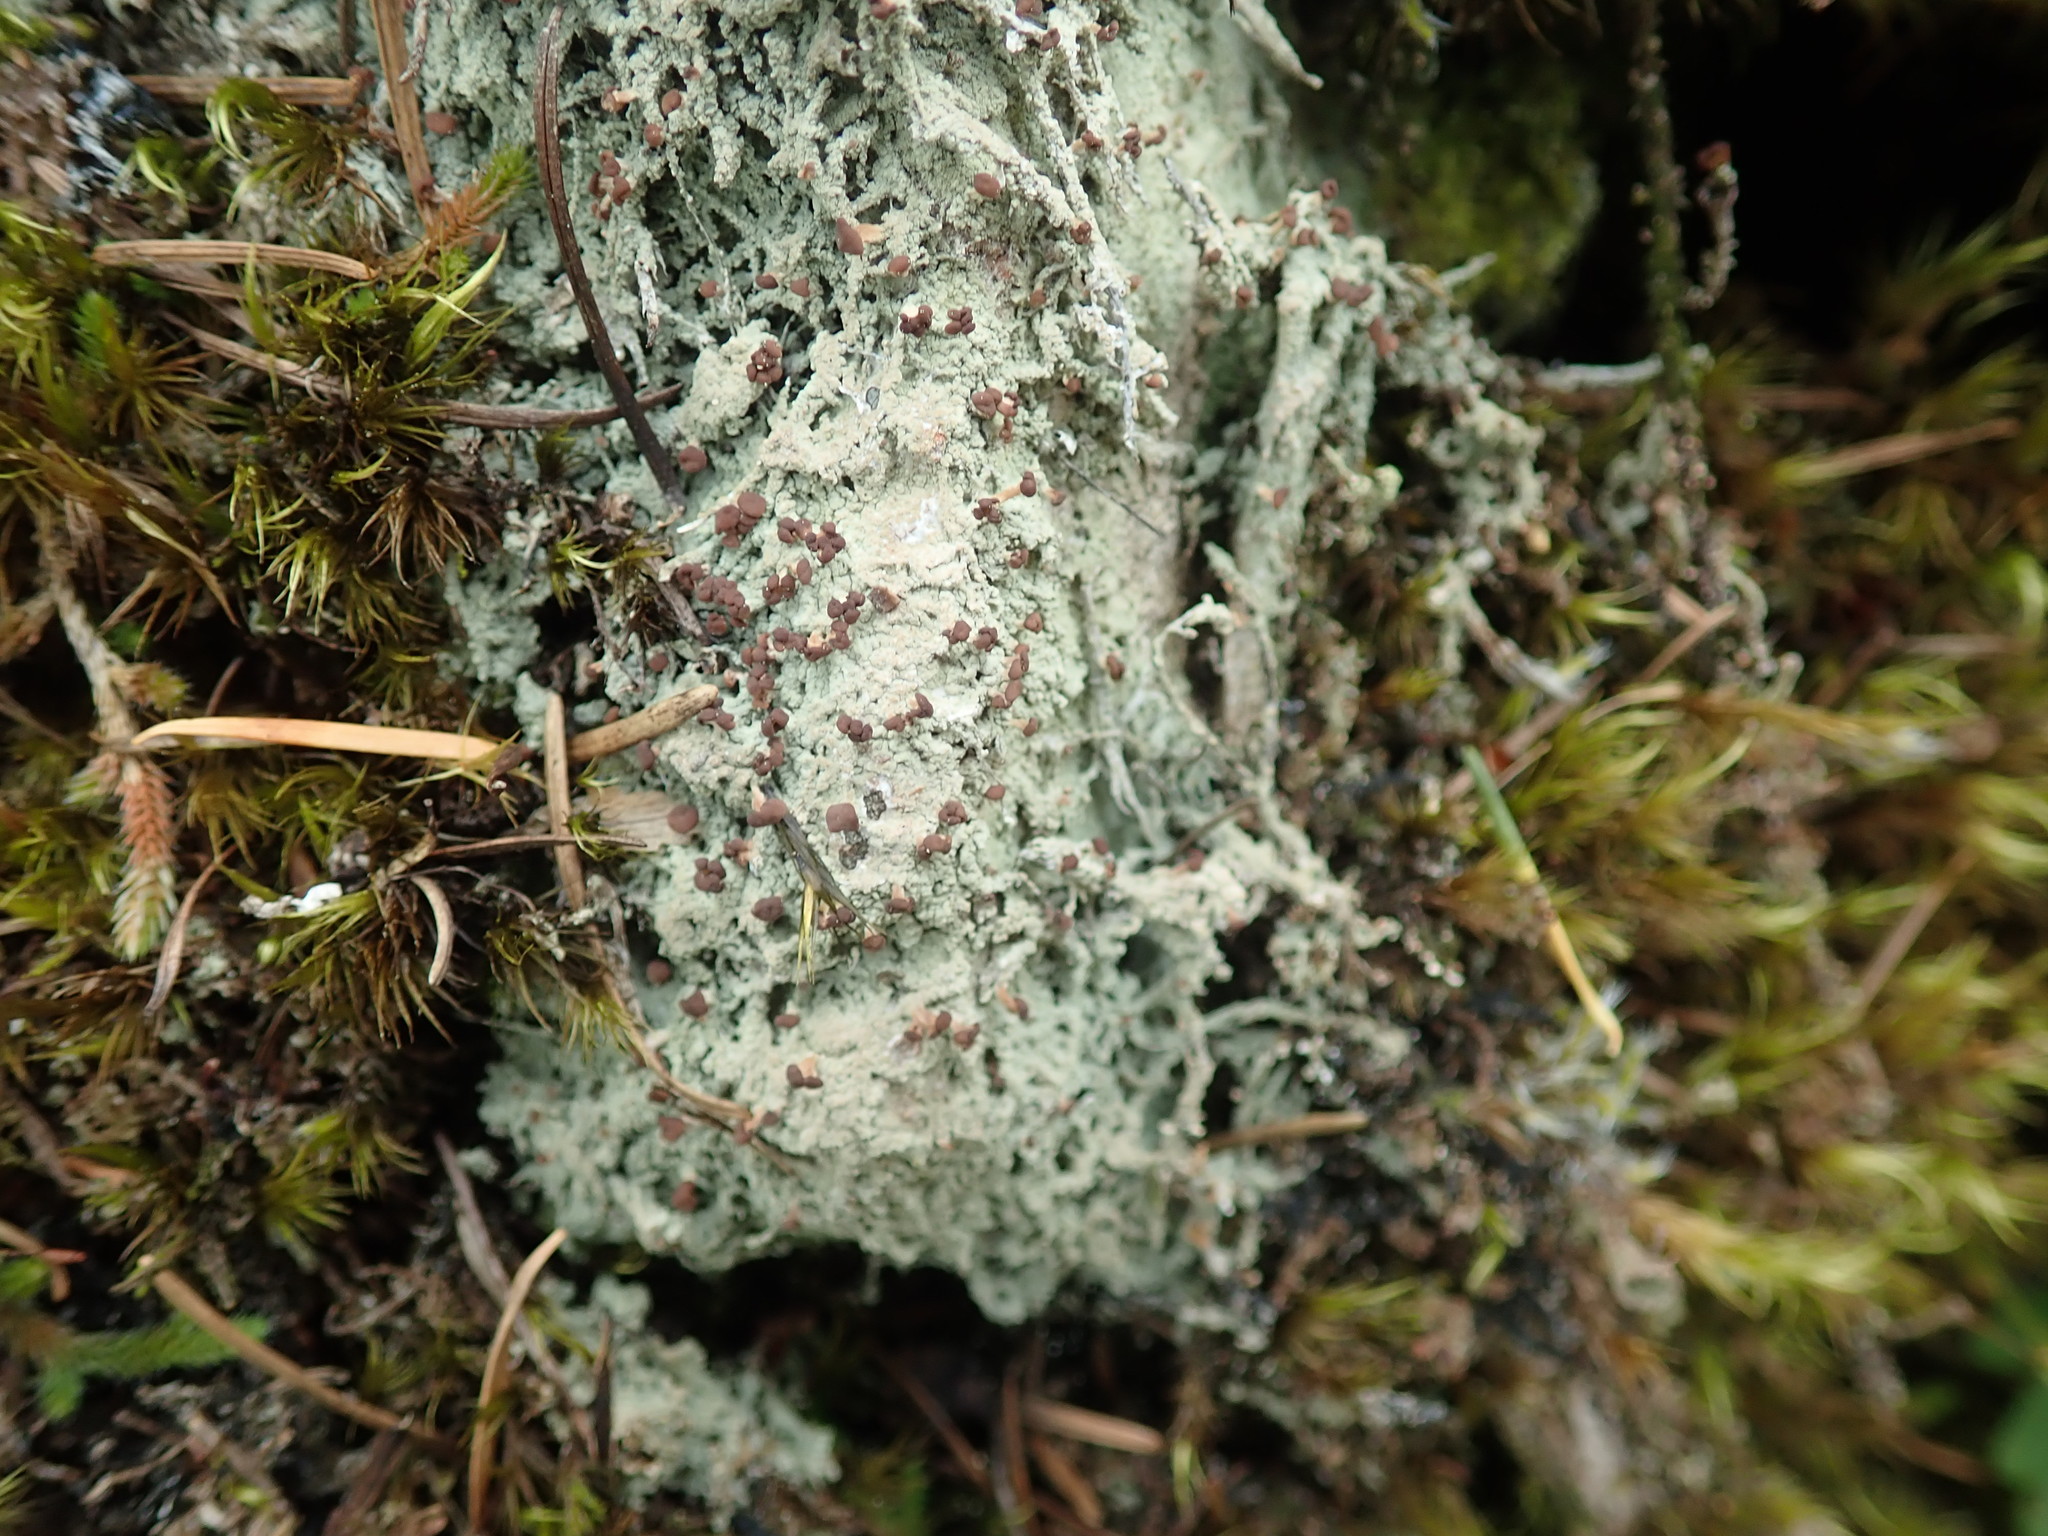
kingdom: Fungi
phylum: Ascomycota
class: Lecanoromycetes
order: Baeomycetales
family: Baeomycetaceae
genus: Baeomyces
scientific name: Baeomyces rufus
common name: Brown beret lichen
